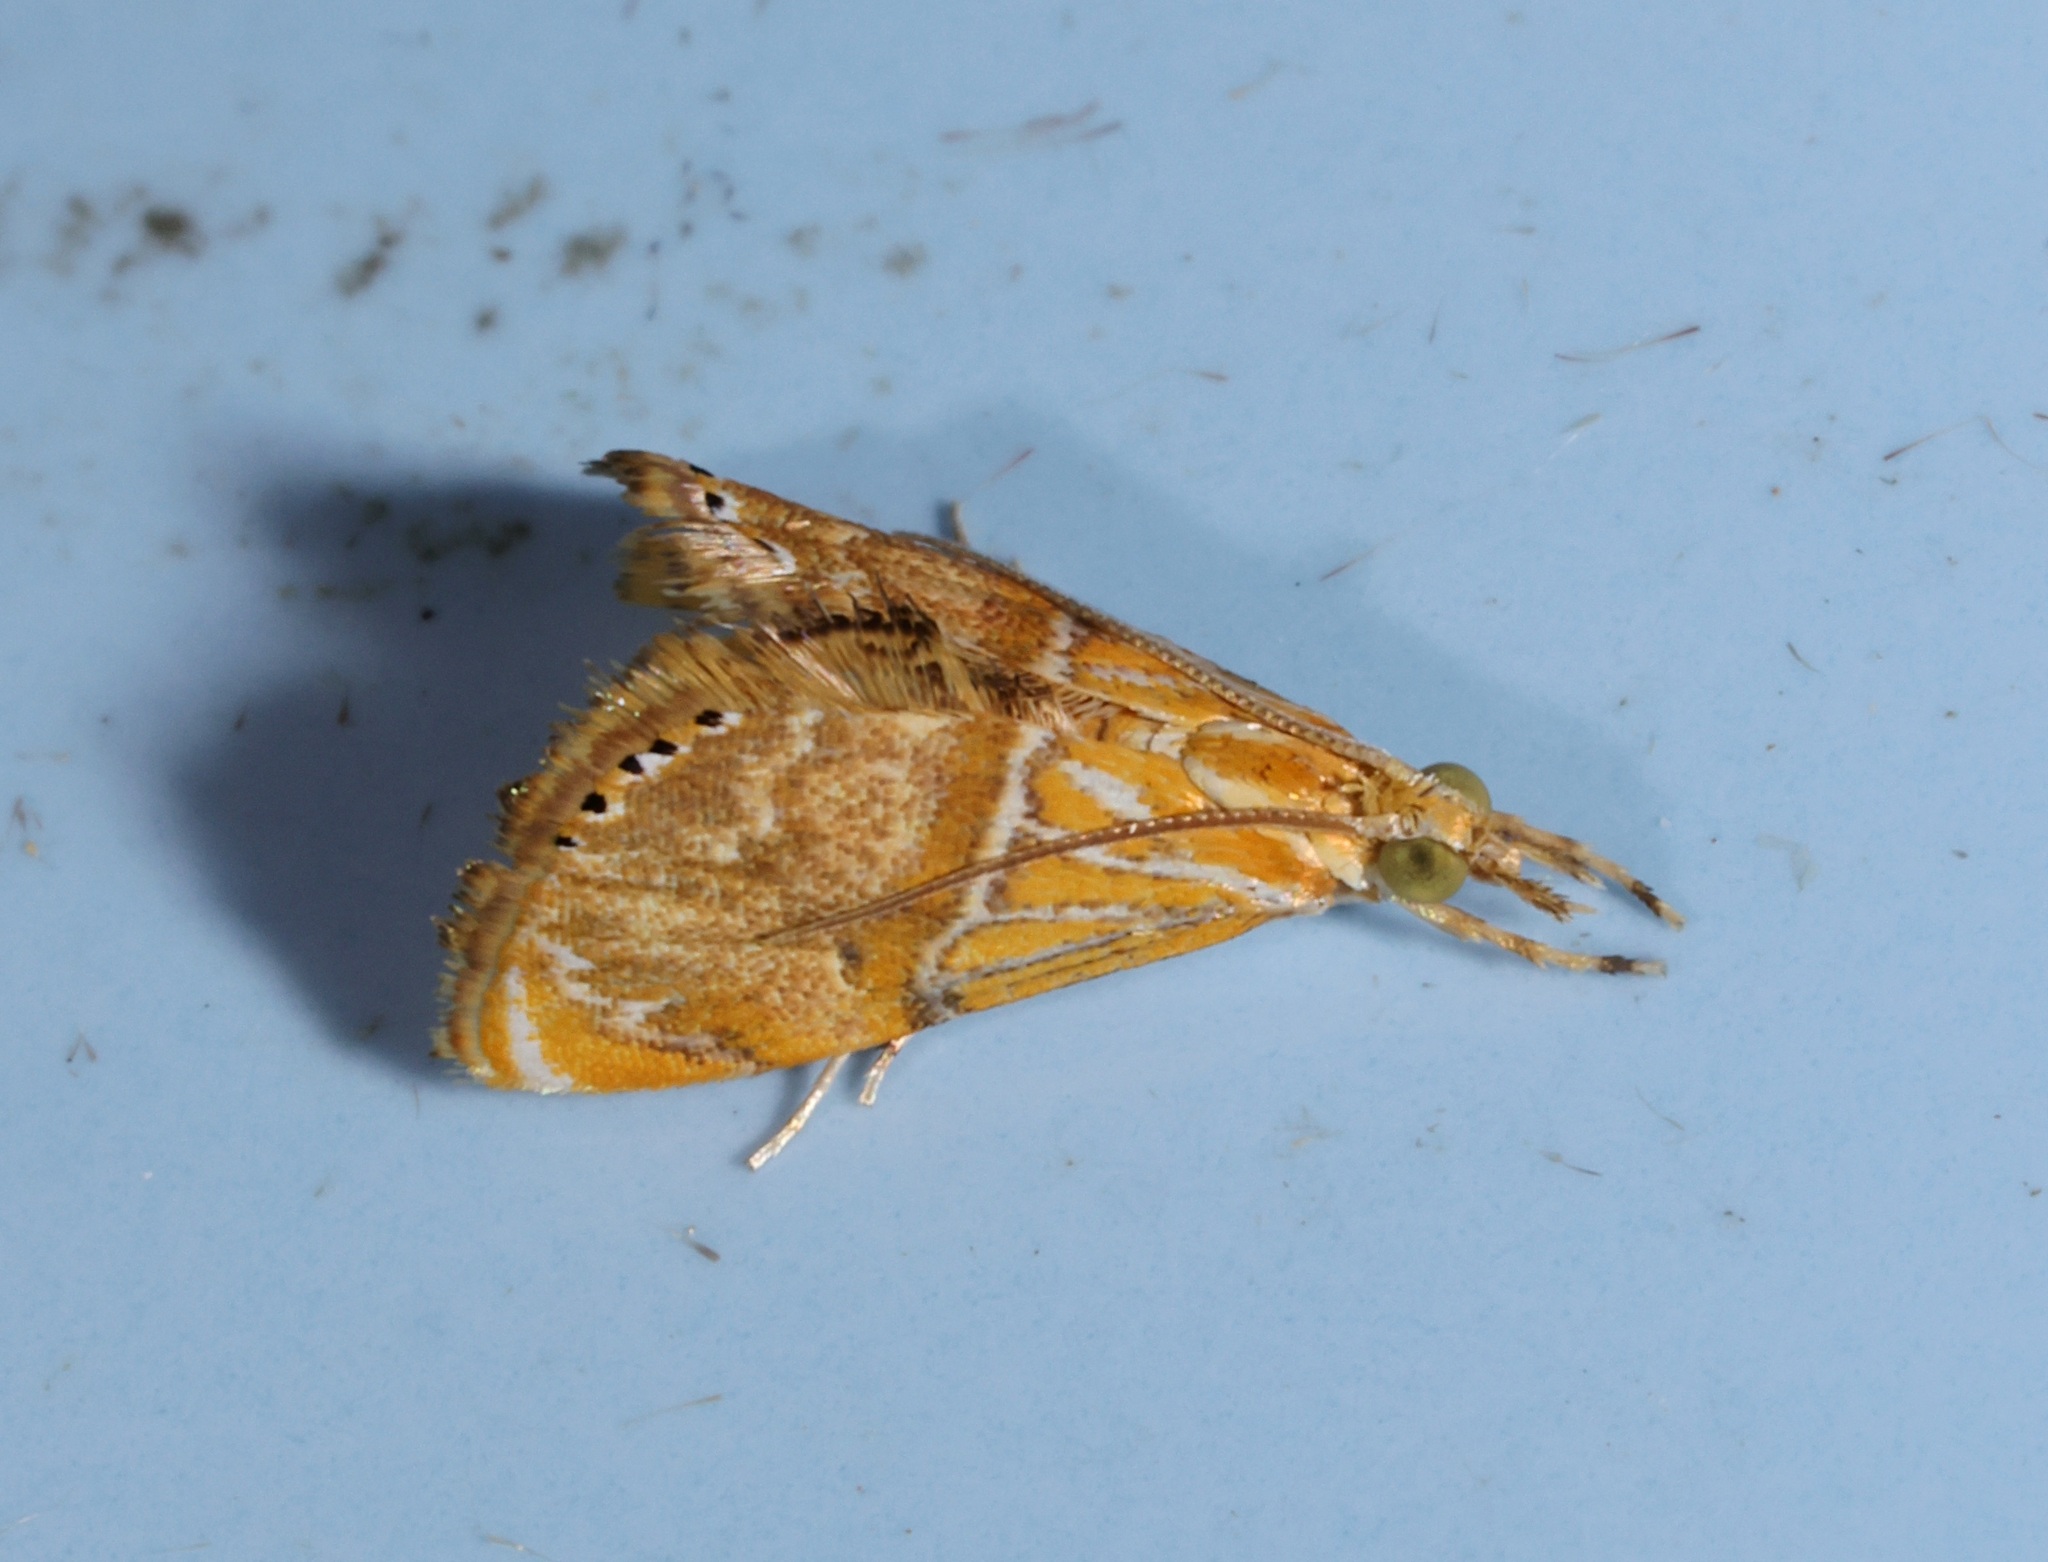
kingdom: Animalia
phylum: Arthropoda
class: Insecta
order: Lepidoptera
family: Crambidae
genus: Euchromius
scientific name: Euchromius pygmaea
